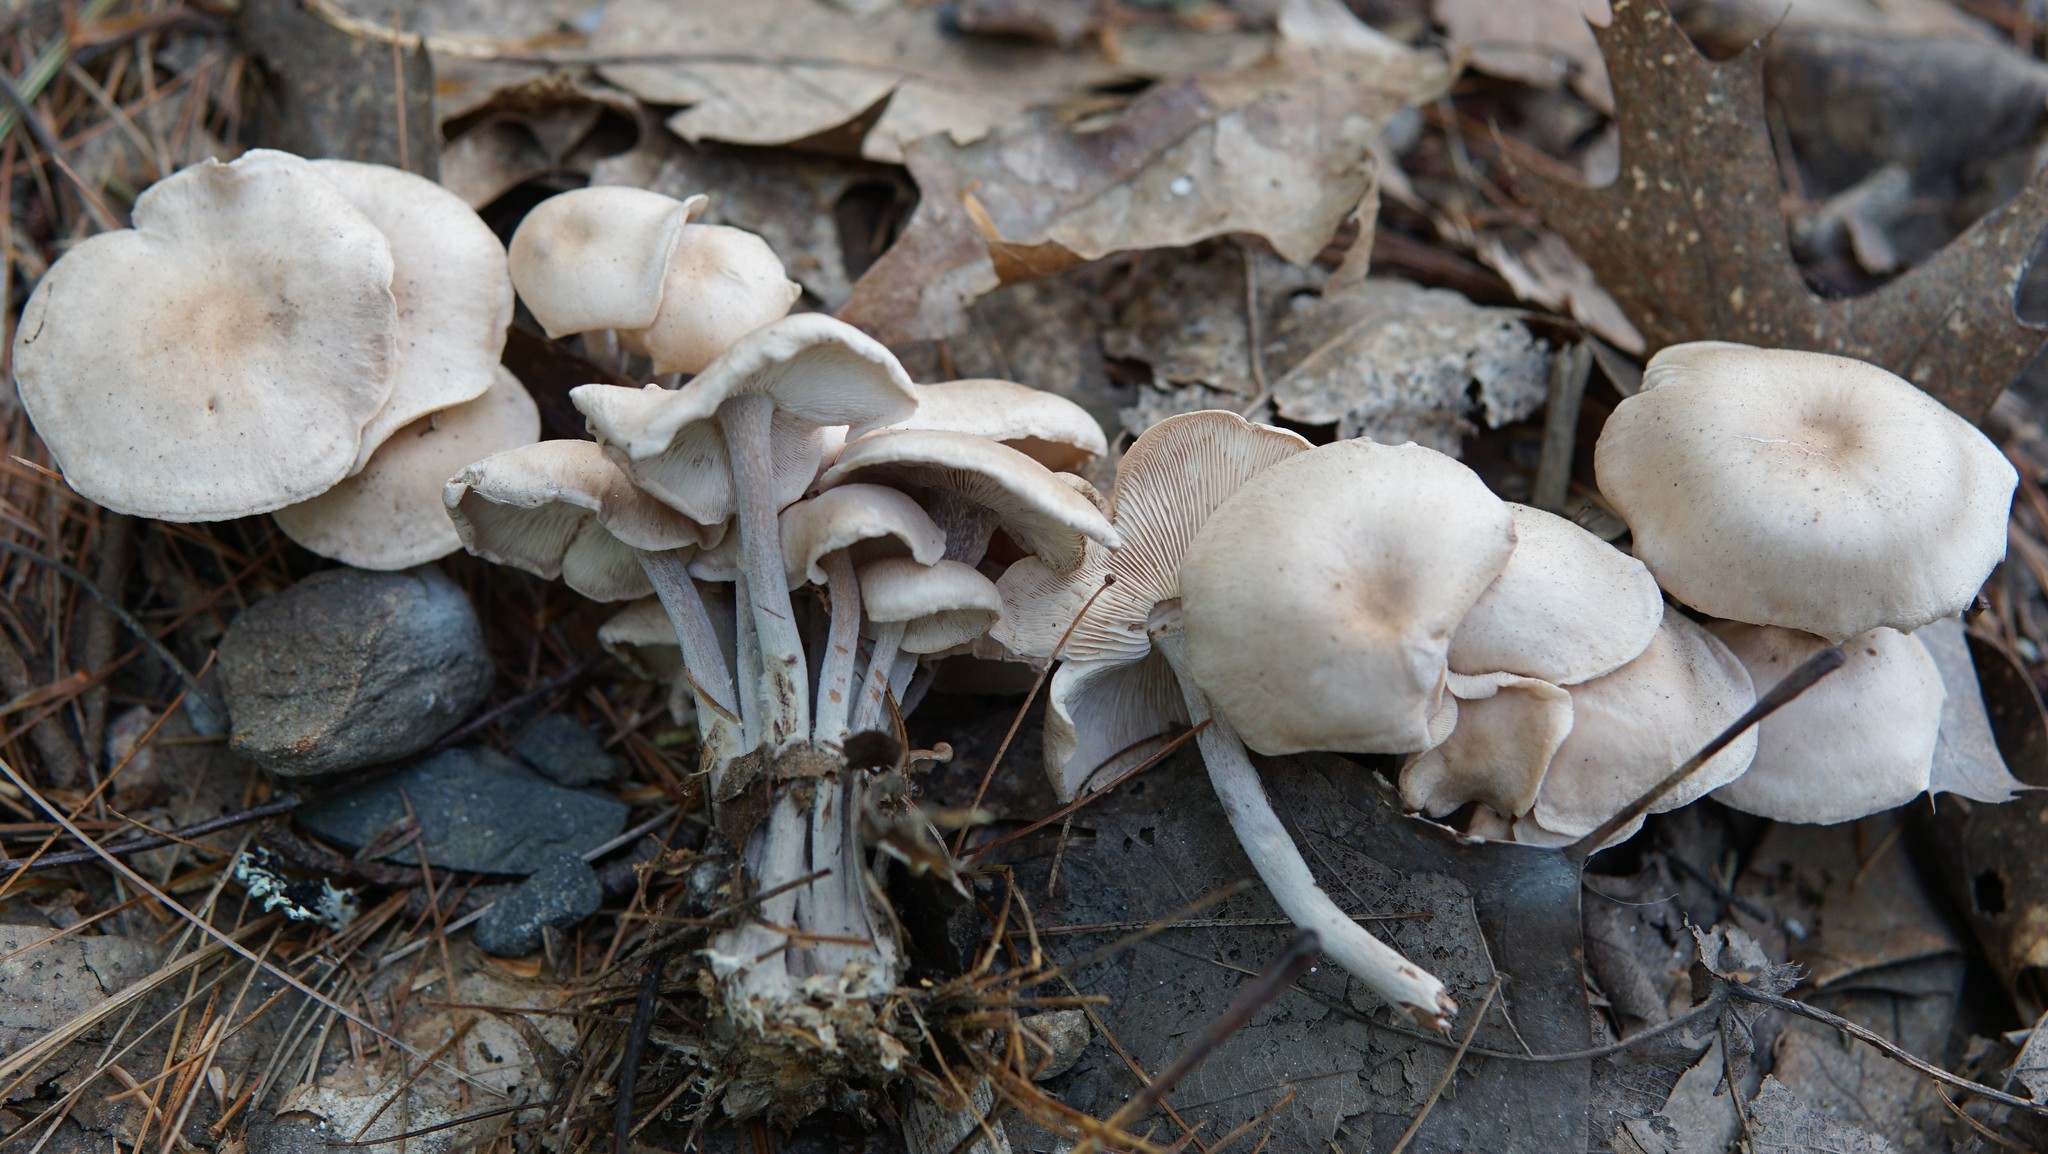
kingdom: Fungi
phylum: Basidiomycota
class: Agaricomycetes
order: Agaricales
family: Omphalotaceae
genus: Collybiopsis
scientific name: Collybiopsis confluens
